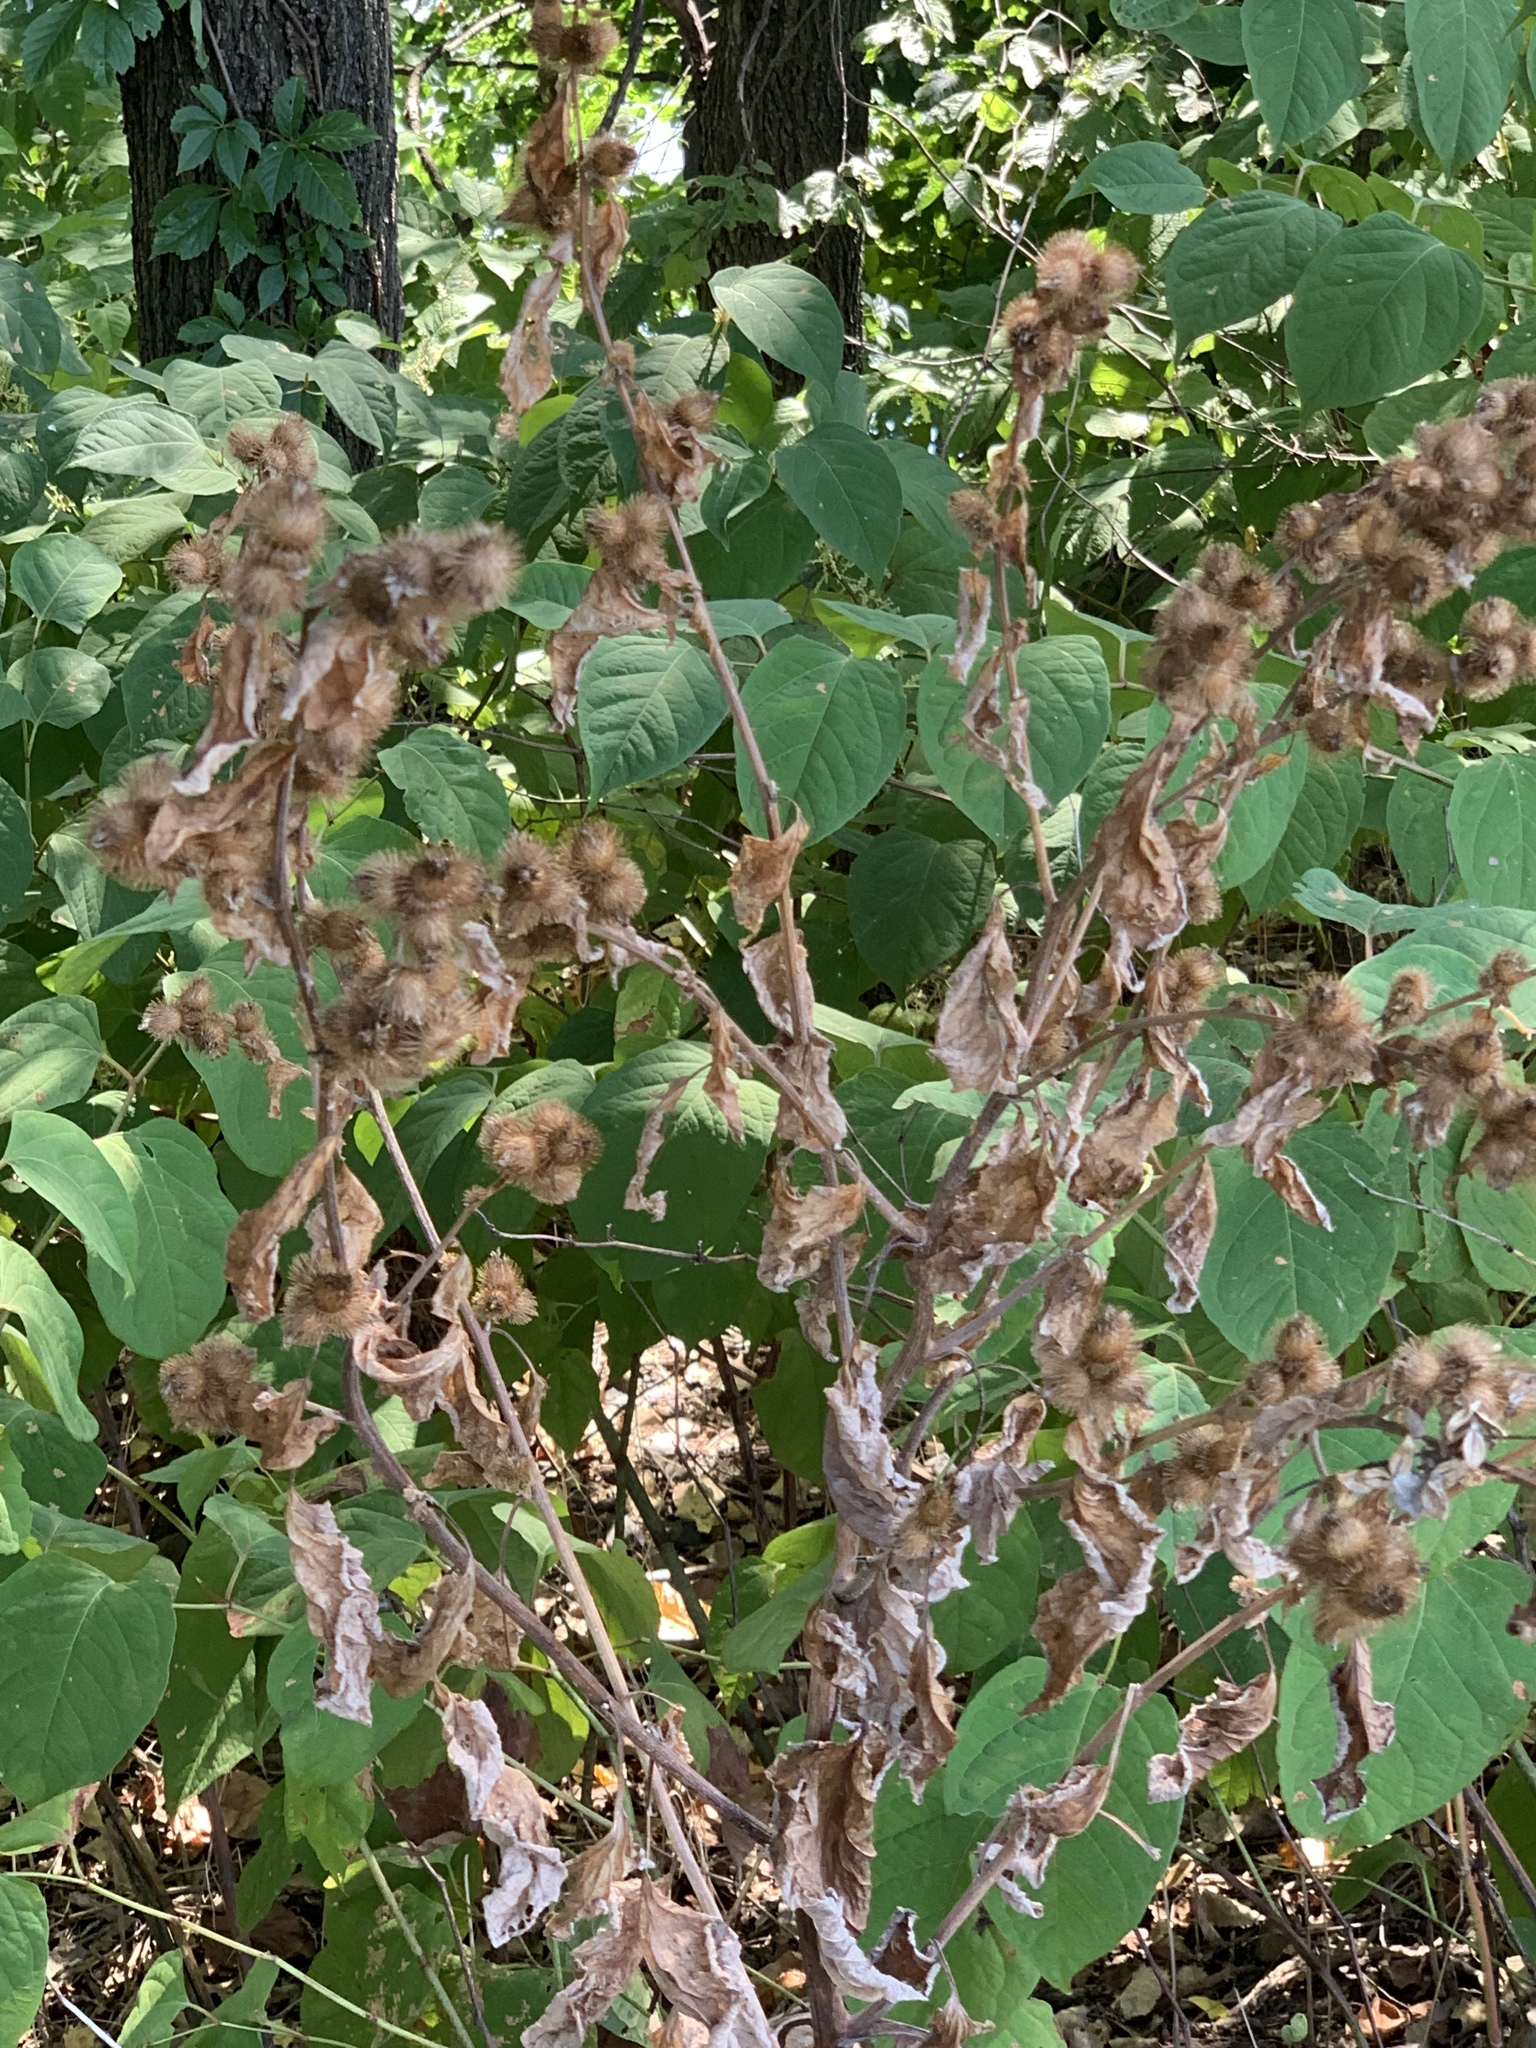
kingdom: Plantae
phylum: Tracheophyta
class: Magnoliopsida
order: Asterales
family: Asteraceae
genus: Arctium
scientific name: Arctium minus
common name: Lesser burdock
